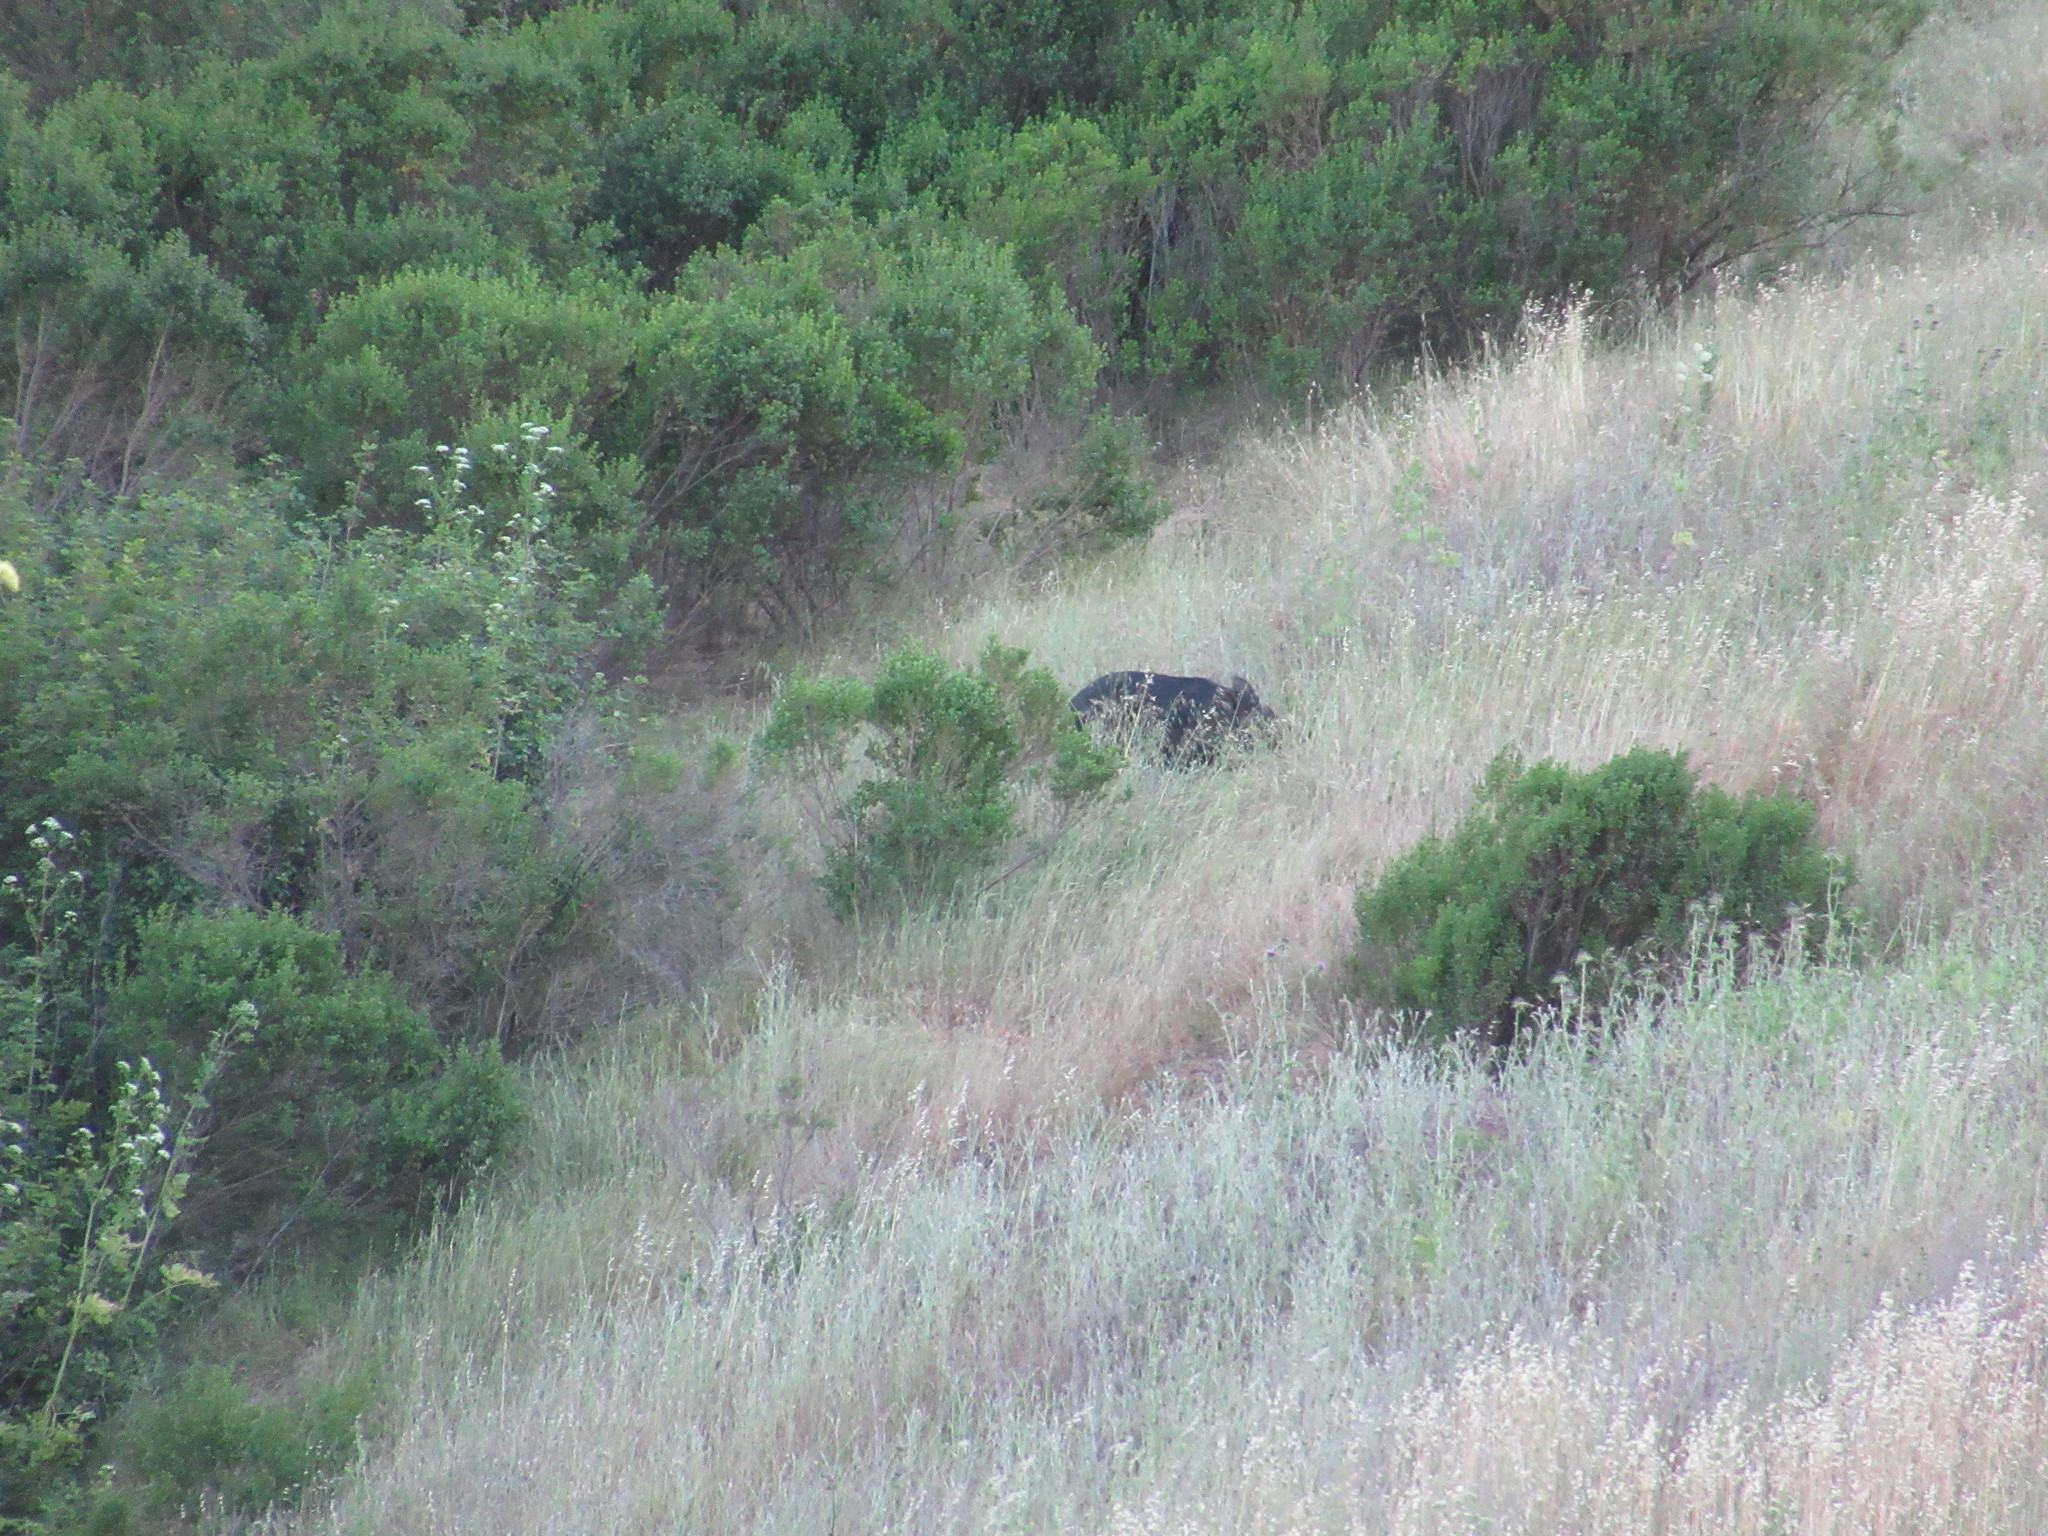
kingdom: Animalia
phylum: Chordata
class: Mammalia
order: Artiodactyla
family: Suidae
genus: Sus
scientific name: Sus scrofa
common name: Wild boar
